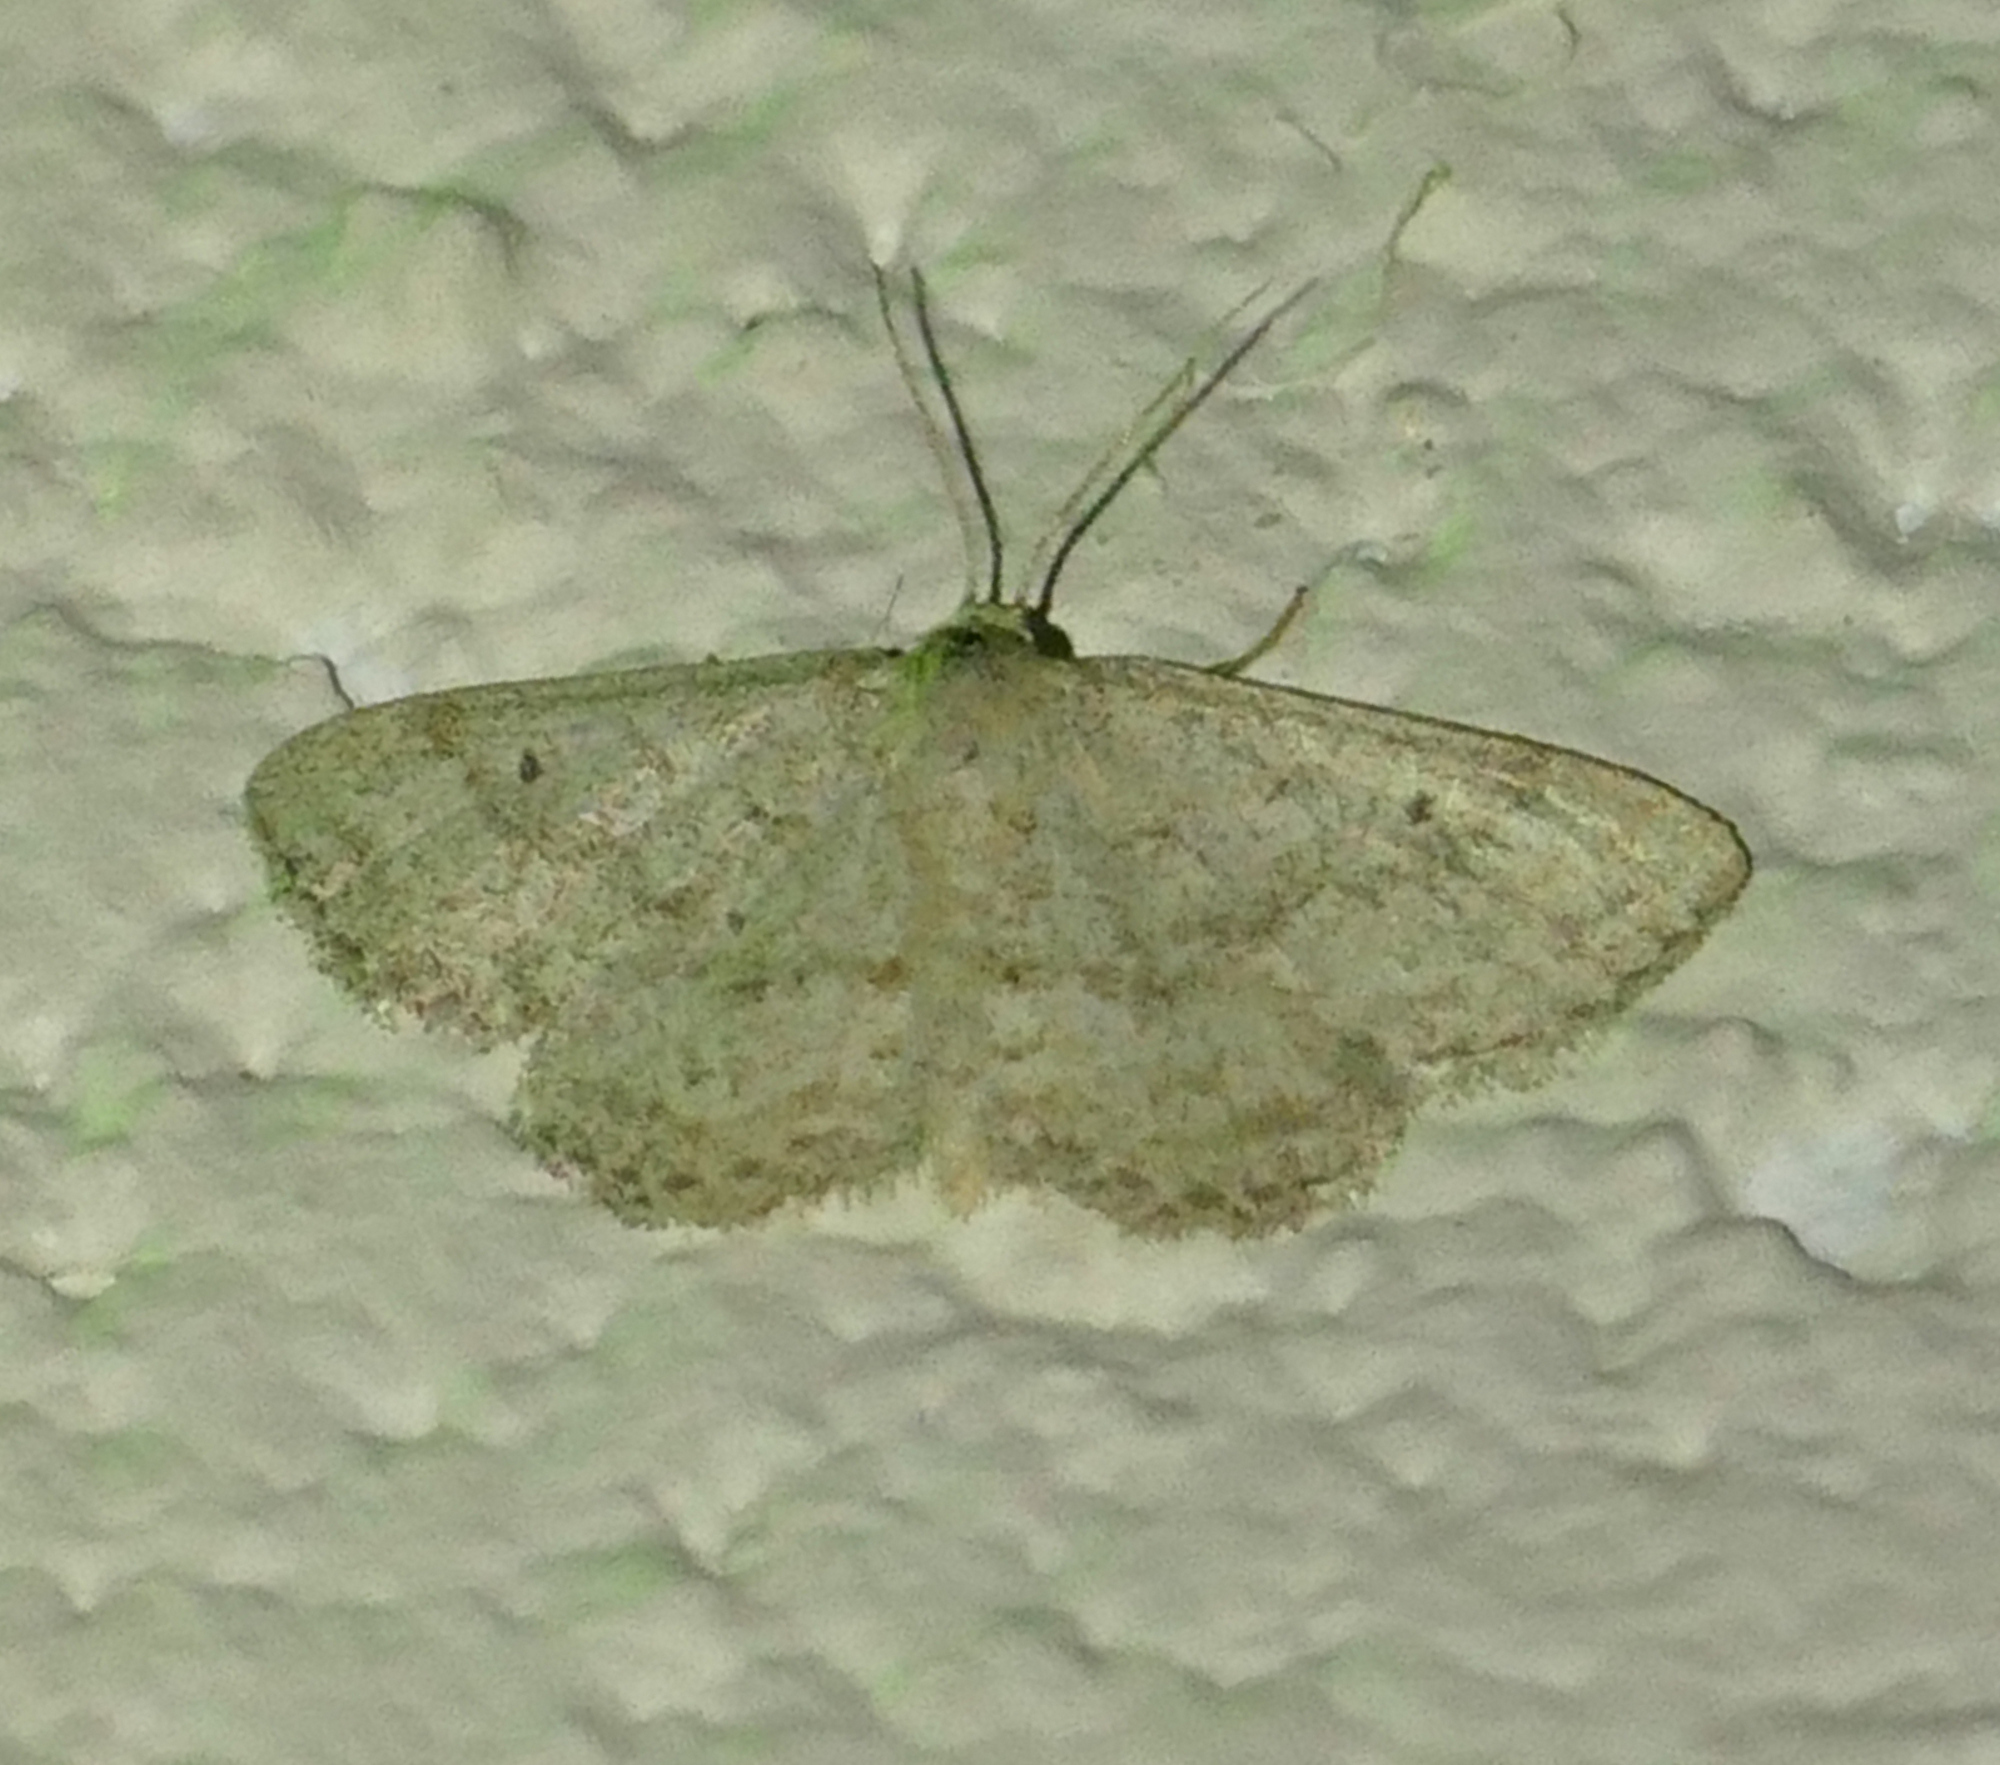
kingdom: Animalia
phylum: Arthropoda
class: Insecta
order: Lepidoptera
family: Geometridae
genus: Lobocleta
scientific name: Lobocleta ossularia
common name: Drab brown wave
